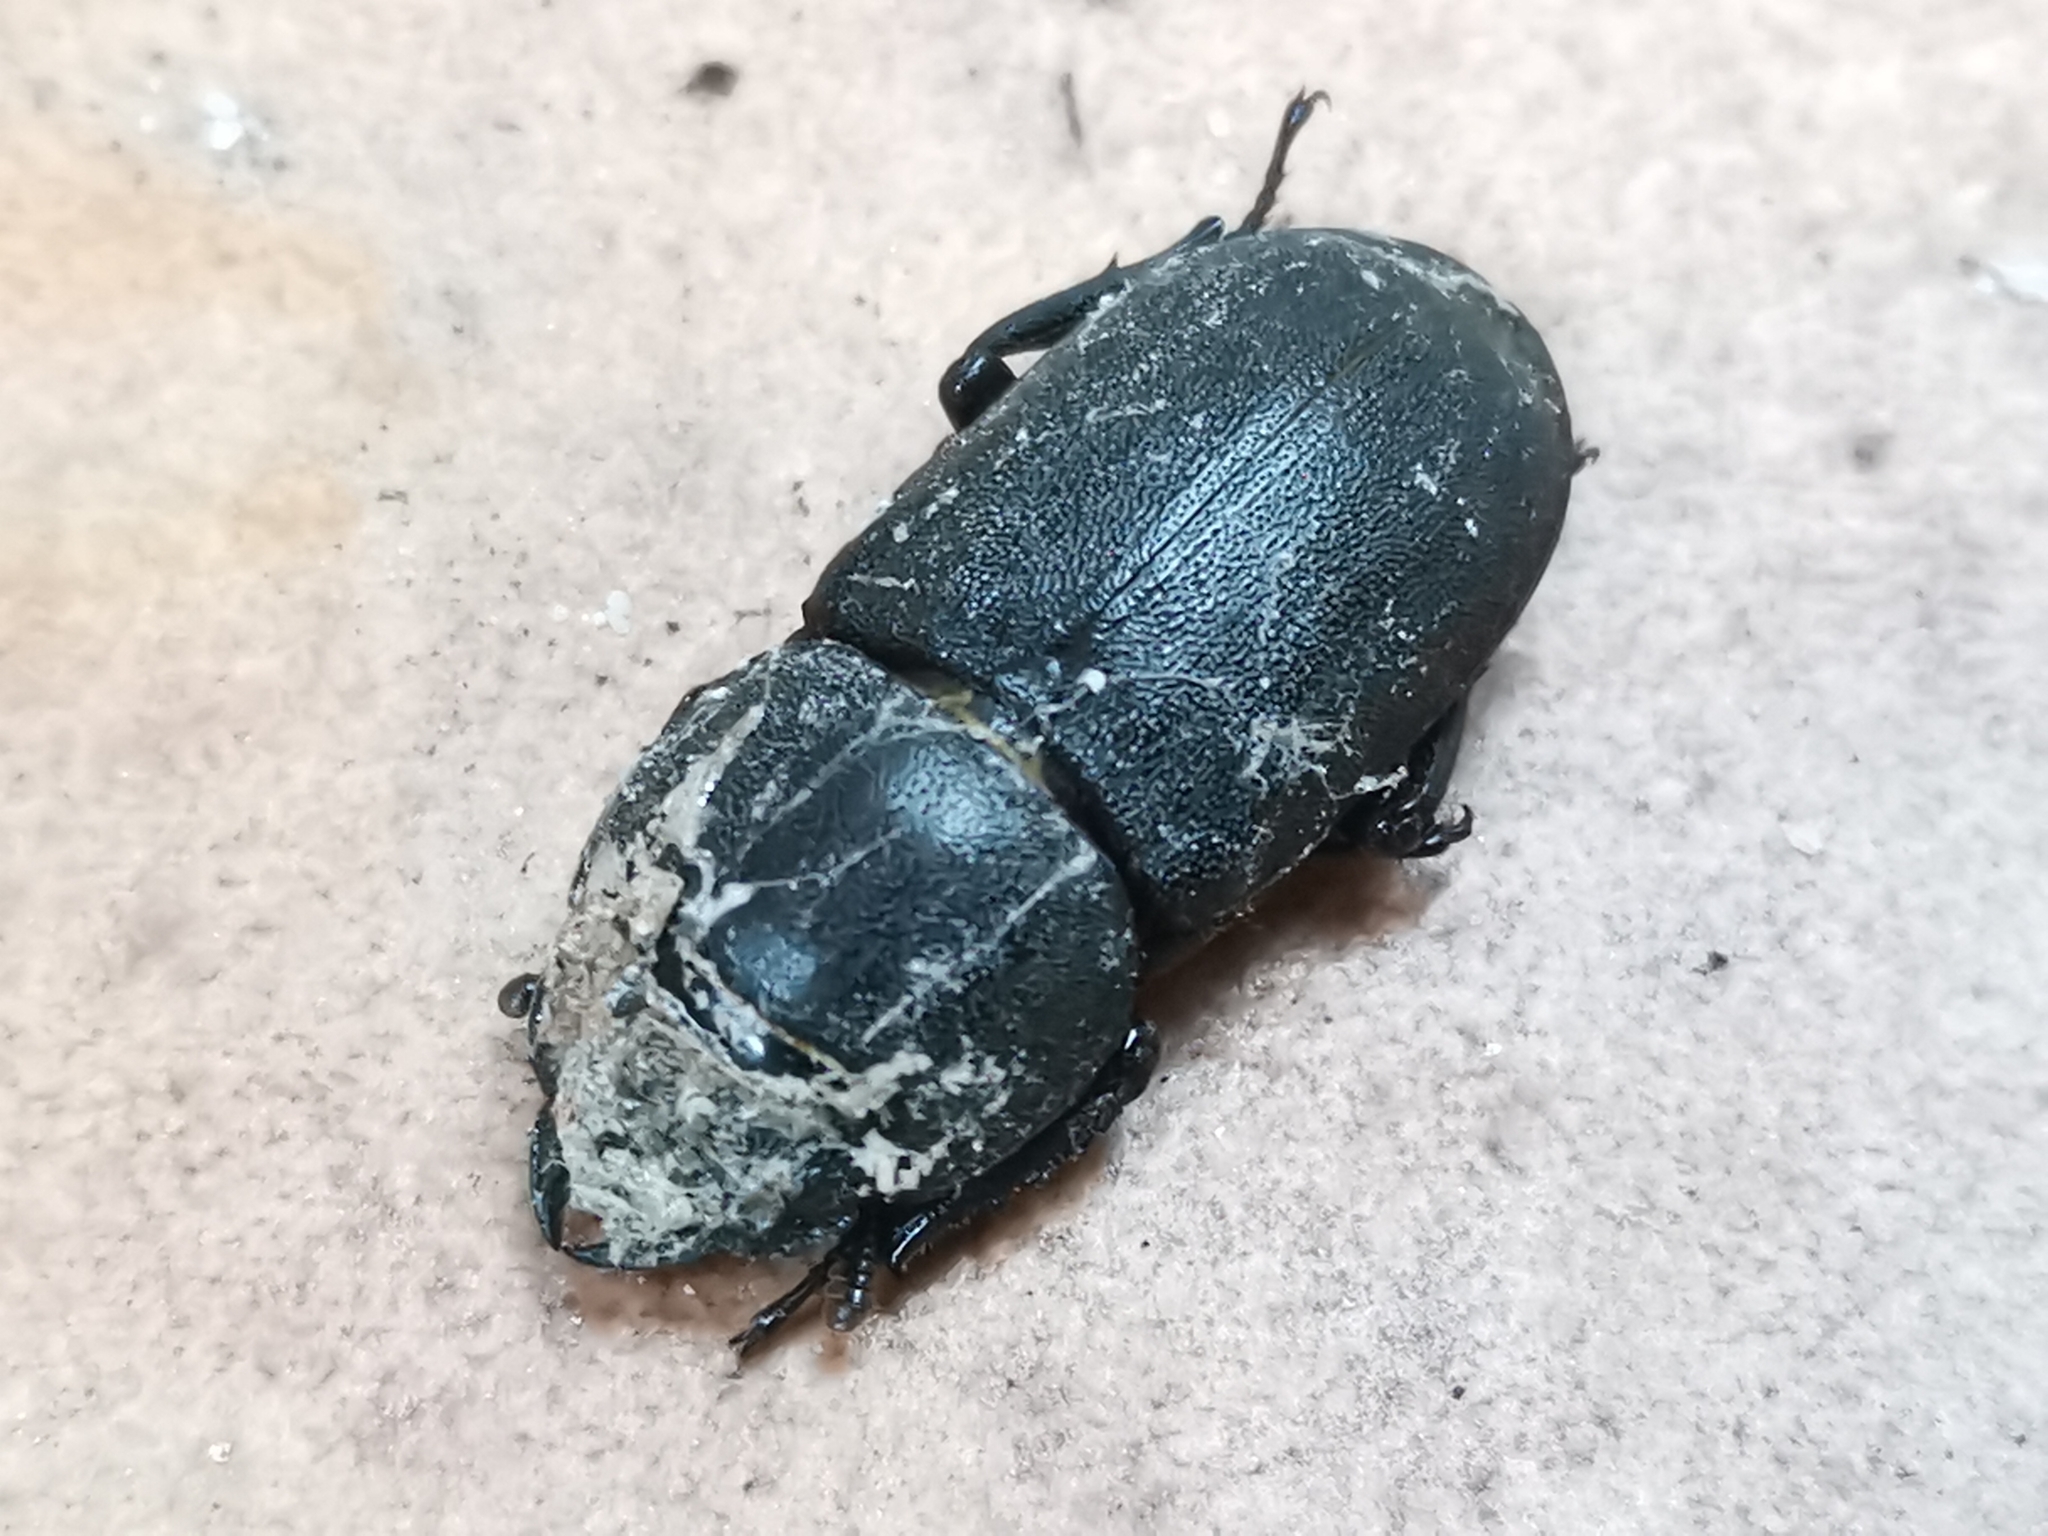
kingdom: Animalia
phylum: Arthropoda
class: Insecta
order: Coleoptera
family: Lucanidae
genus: Dorcus
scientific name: Dorcus parallelipipedus
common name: Lesser stag beetle
